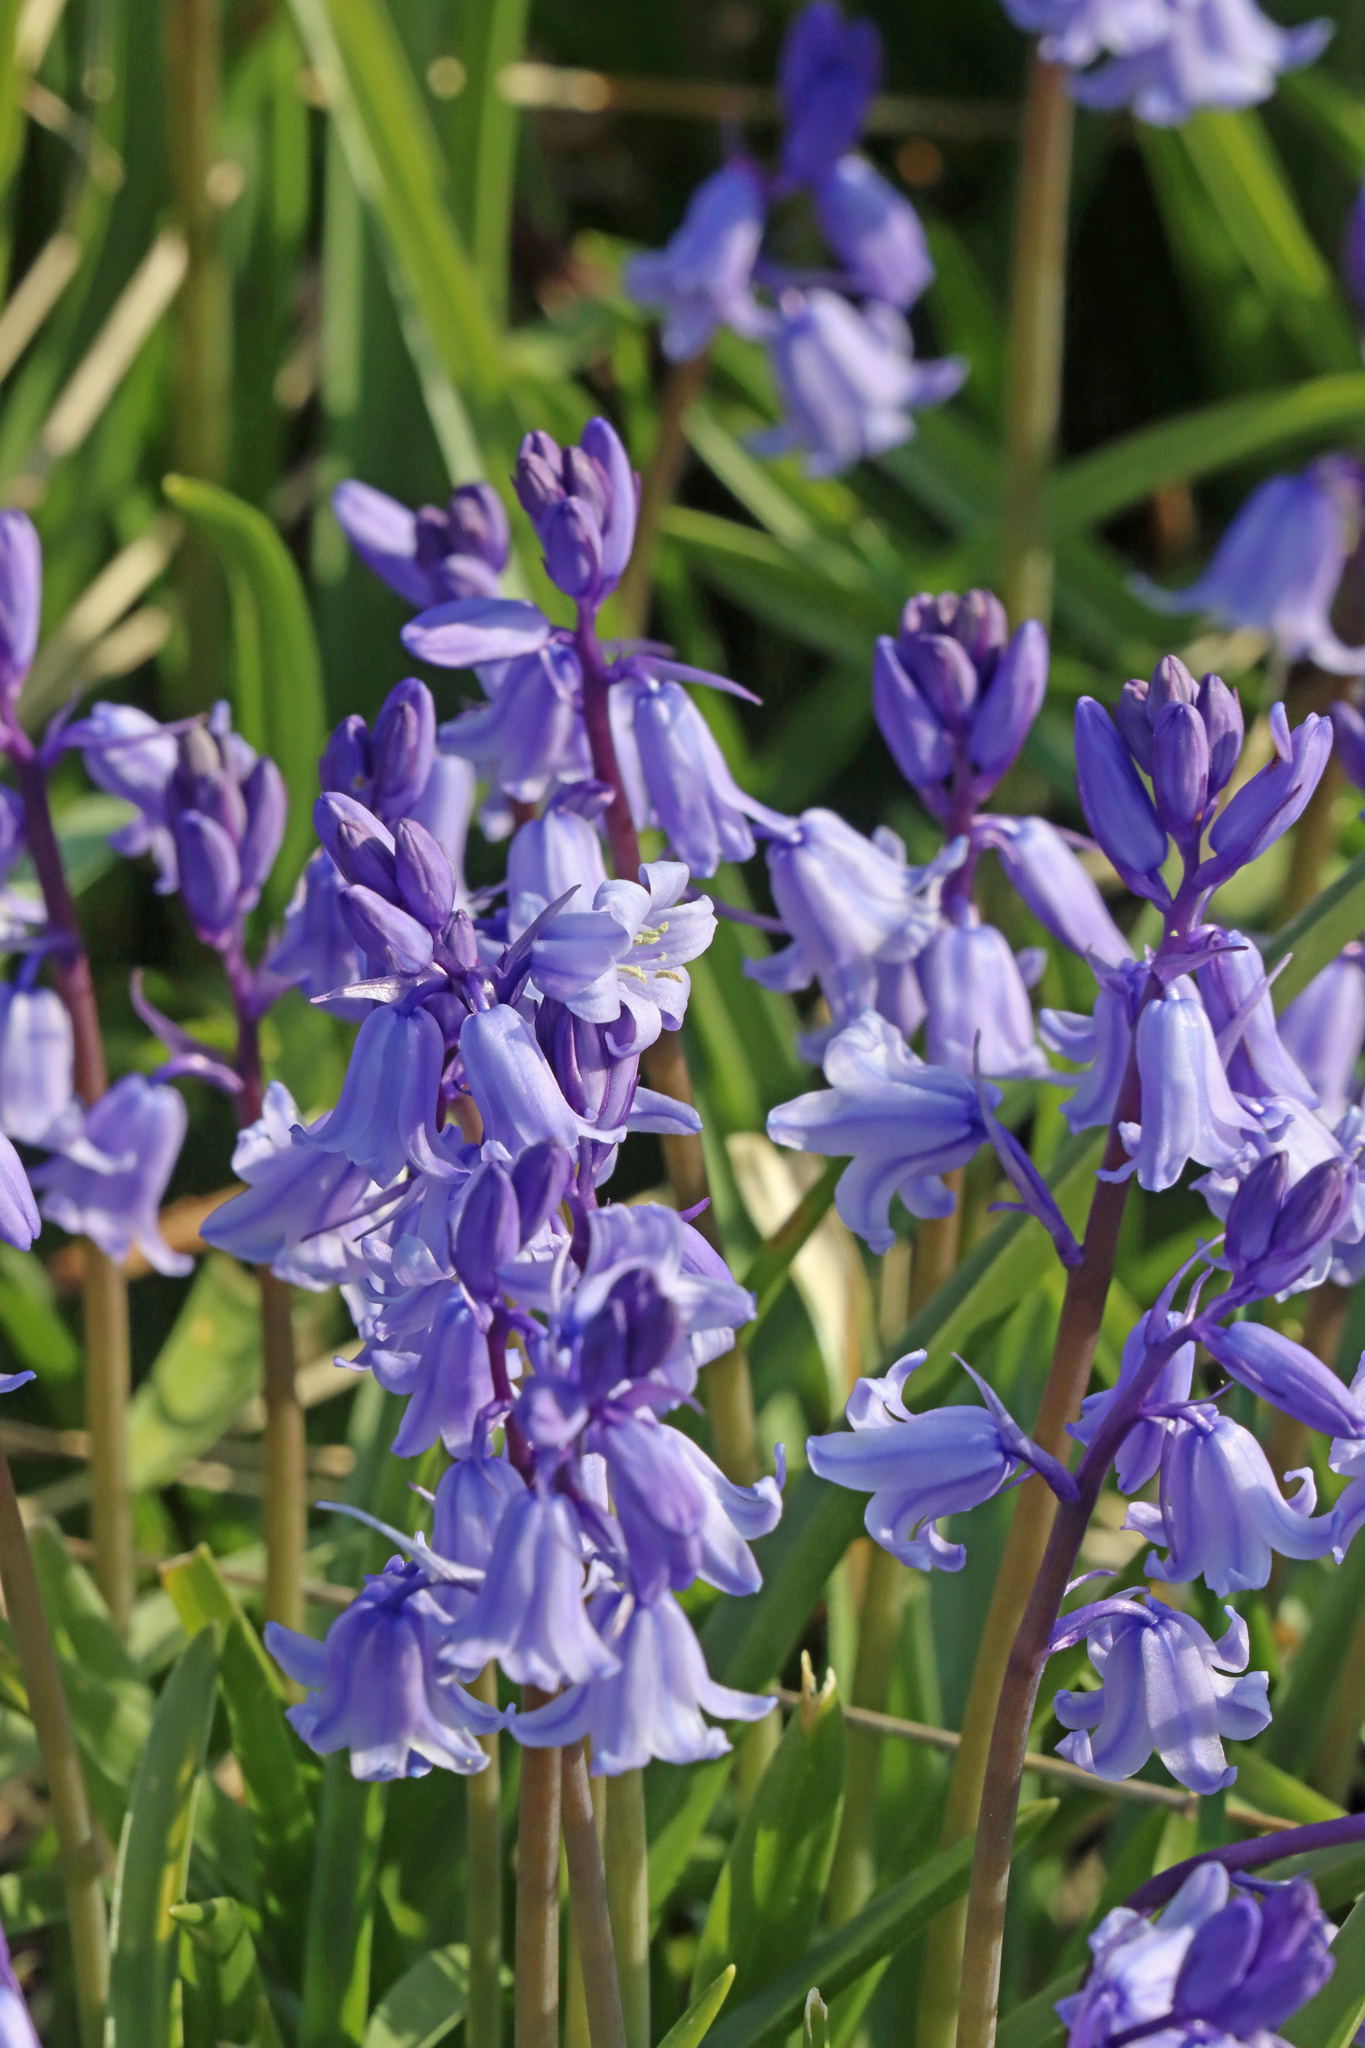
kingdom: Plantae
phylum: Tracheophyta
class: Liliopsida
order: Asparagales
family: Asparagaceae
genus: Hyacinthoides
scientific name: Hyacinthoides hispanica
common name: Spanish bluebell
